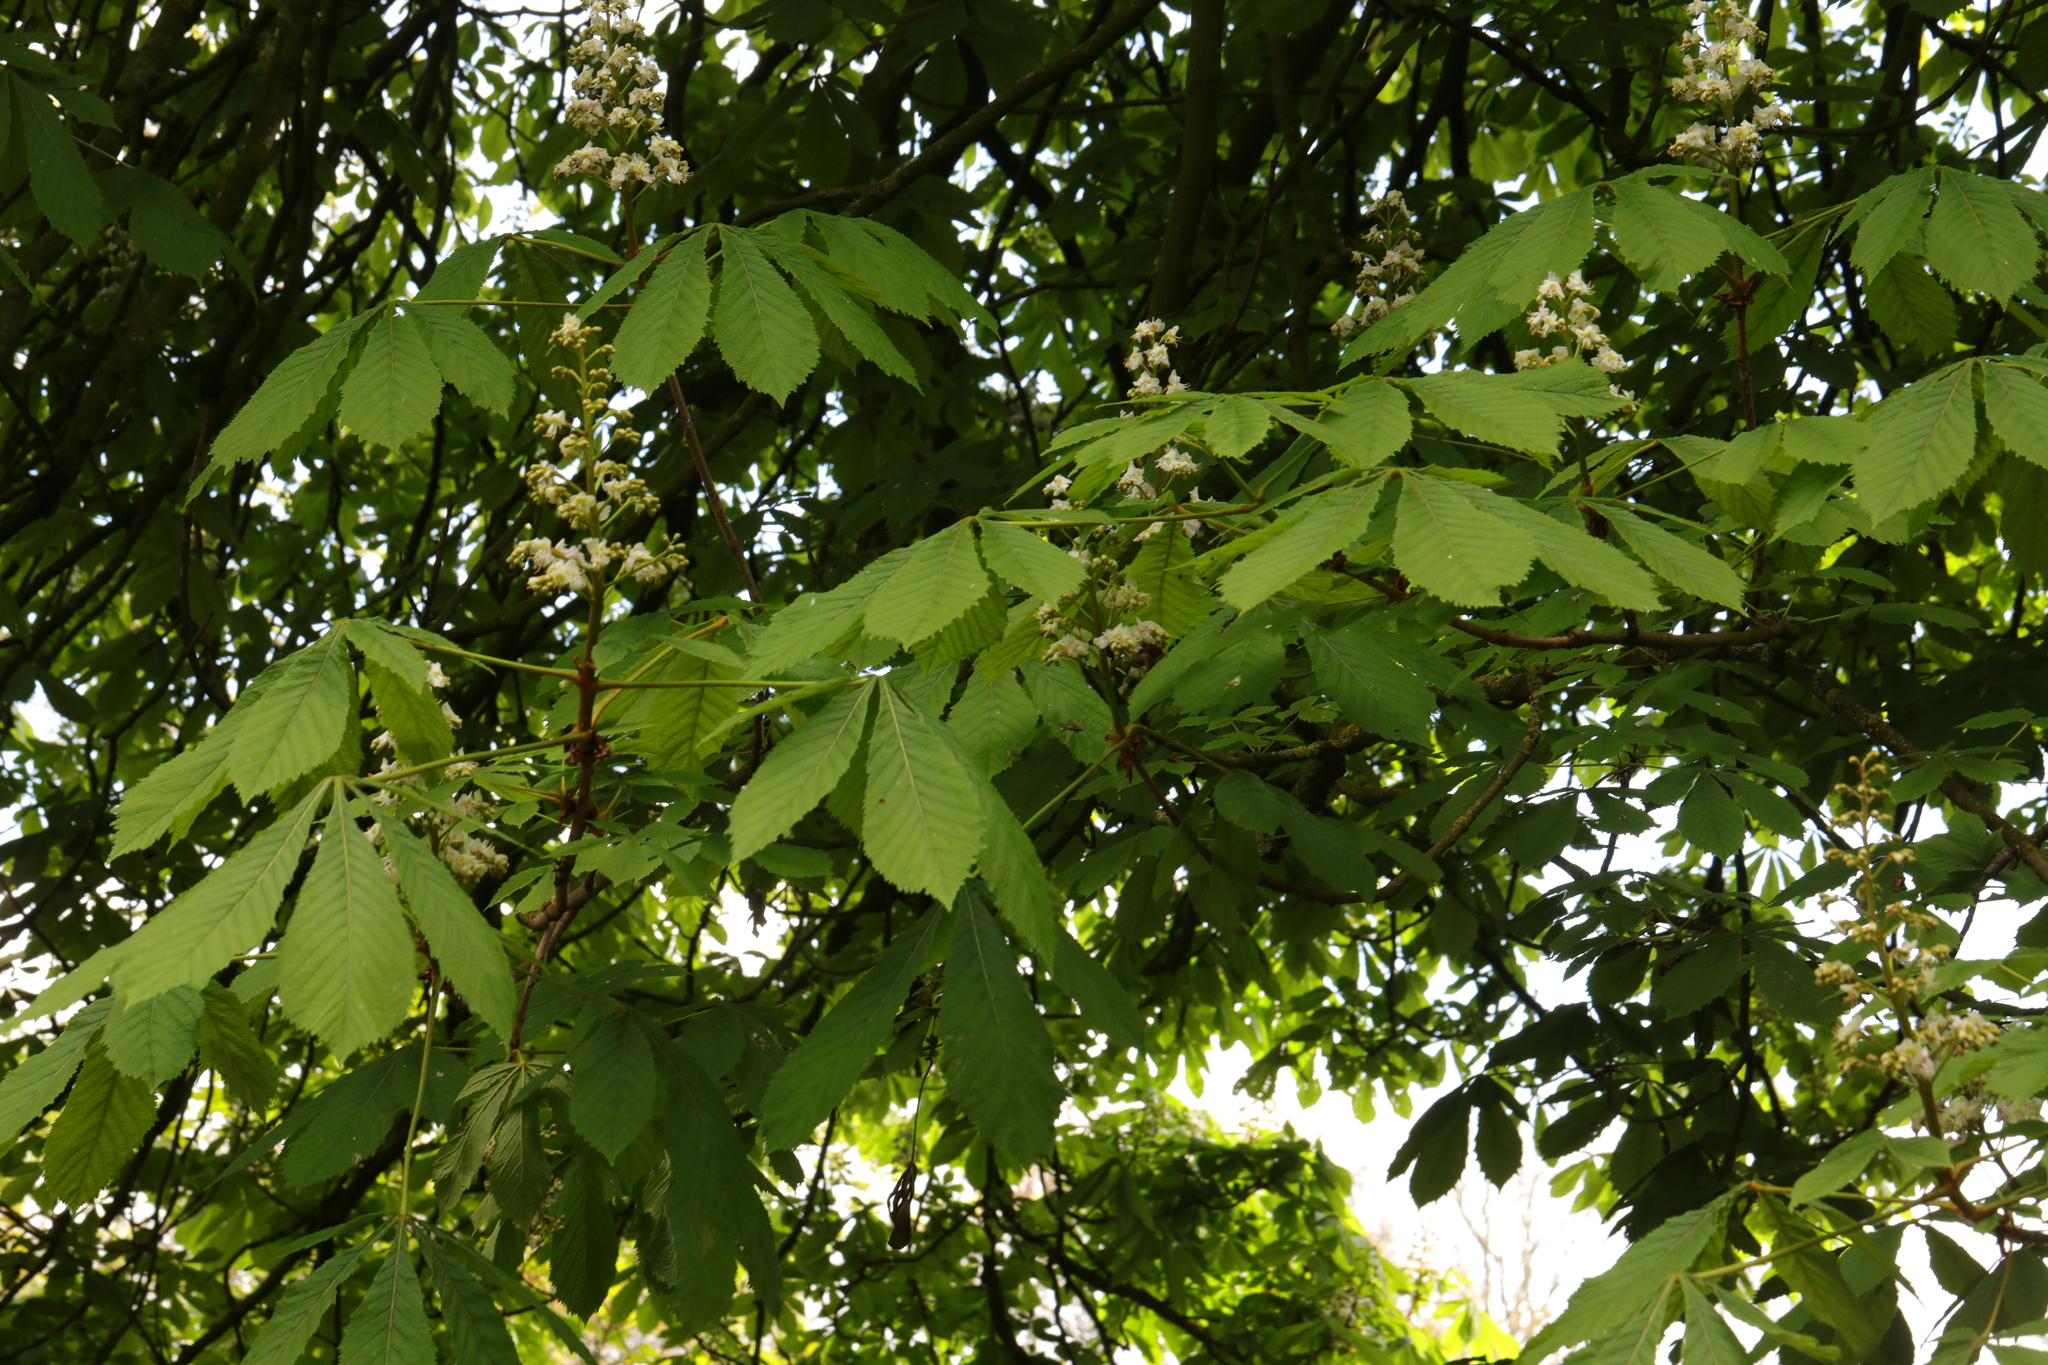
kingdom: Plantae
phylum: Tracheophyta
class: Magnoliopsida
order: Sapindales
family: Sapindaceae
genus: Aesculus
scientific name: Aesculus hippocastanum
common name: Horse-chestnut
